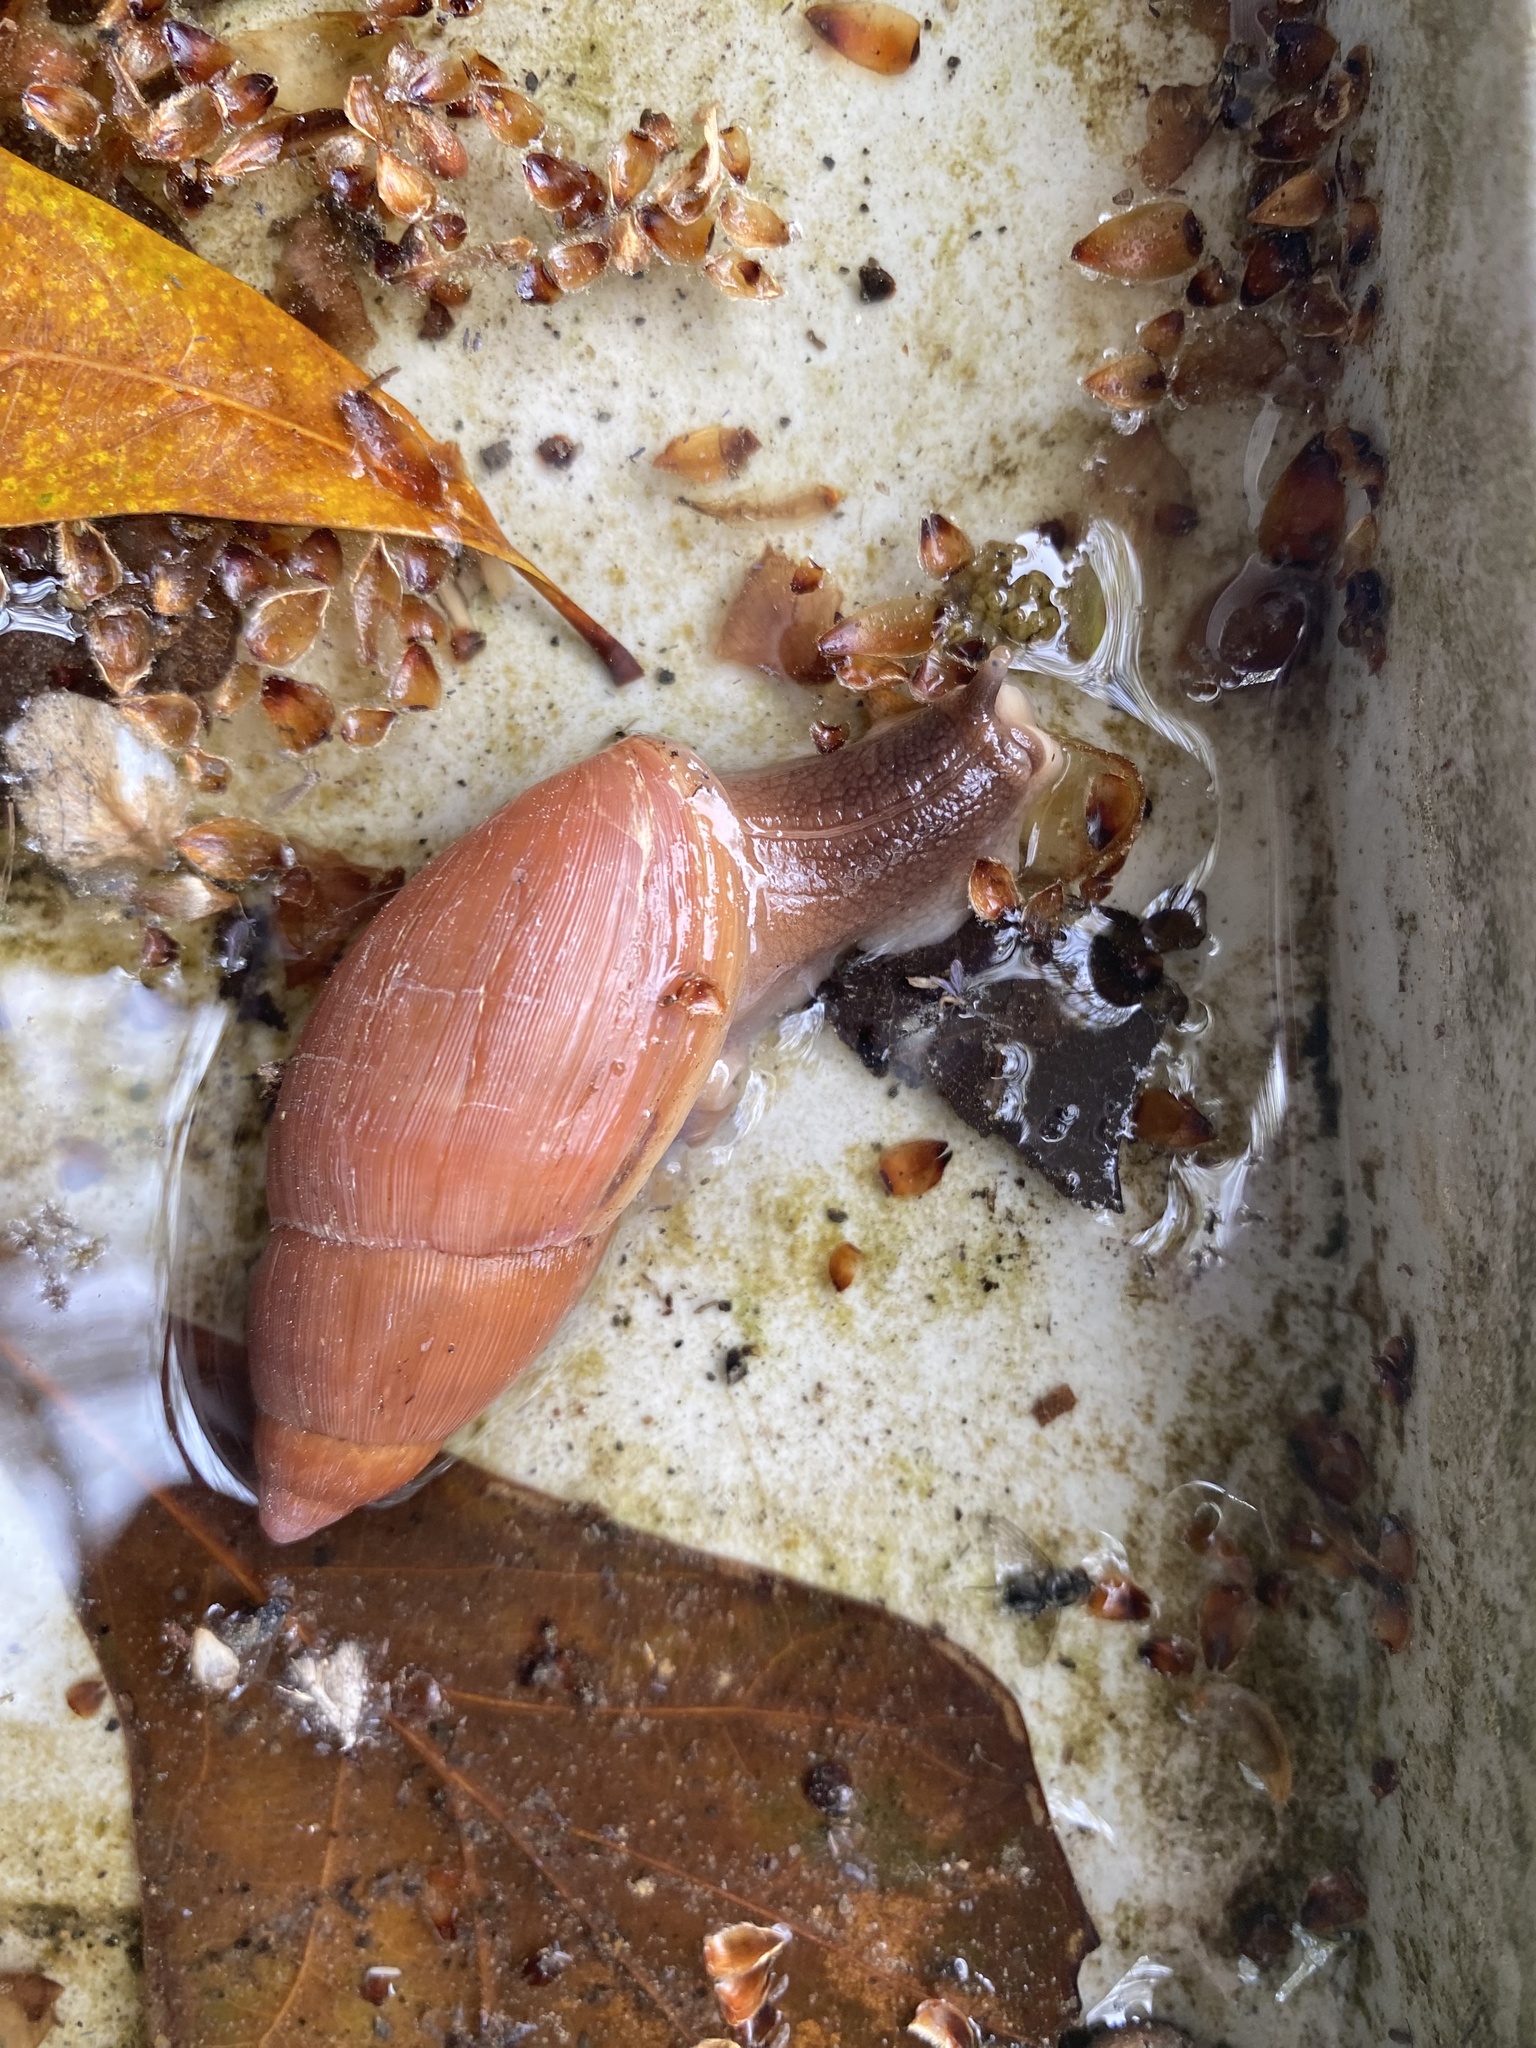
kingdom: Animalia
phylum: Mollusca
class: Gastropoda
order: Stylommatophora
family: Spiraxidae
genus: Euglandina
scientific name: Euglandina rosea
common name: Rosy wolfsnail
